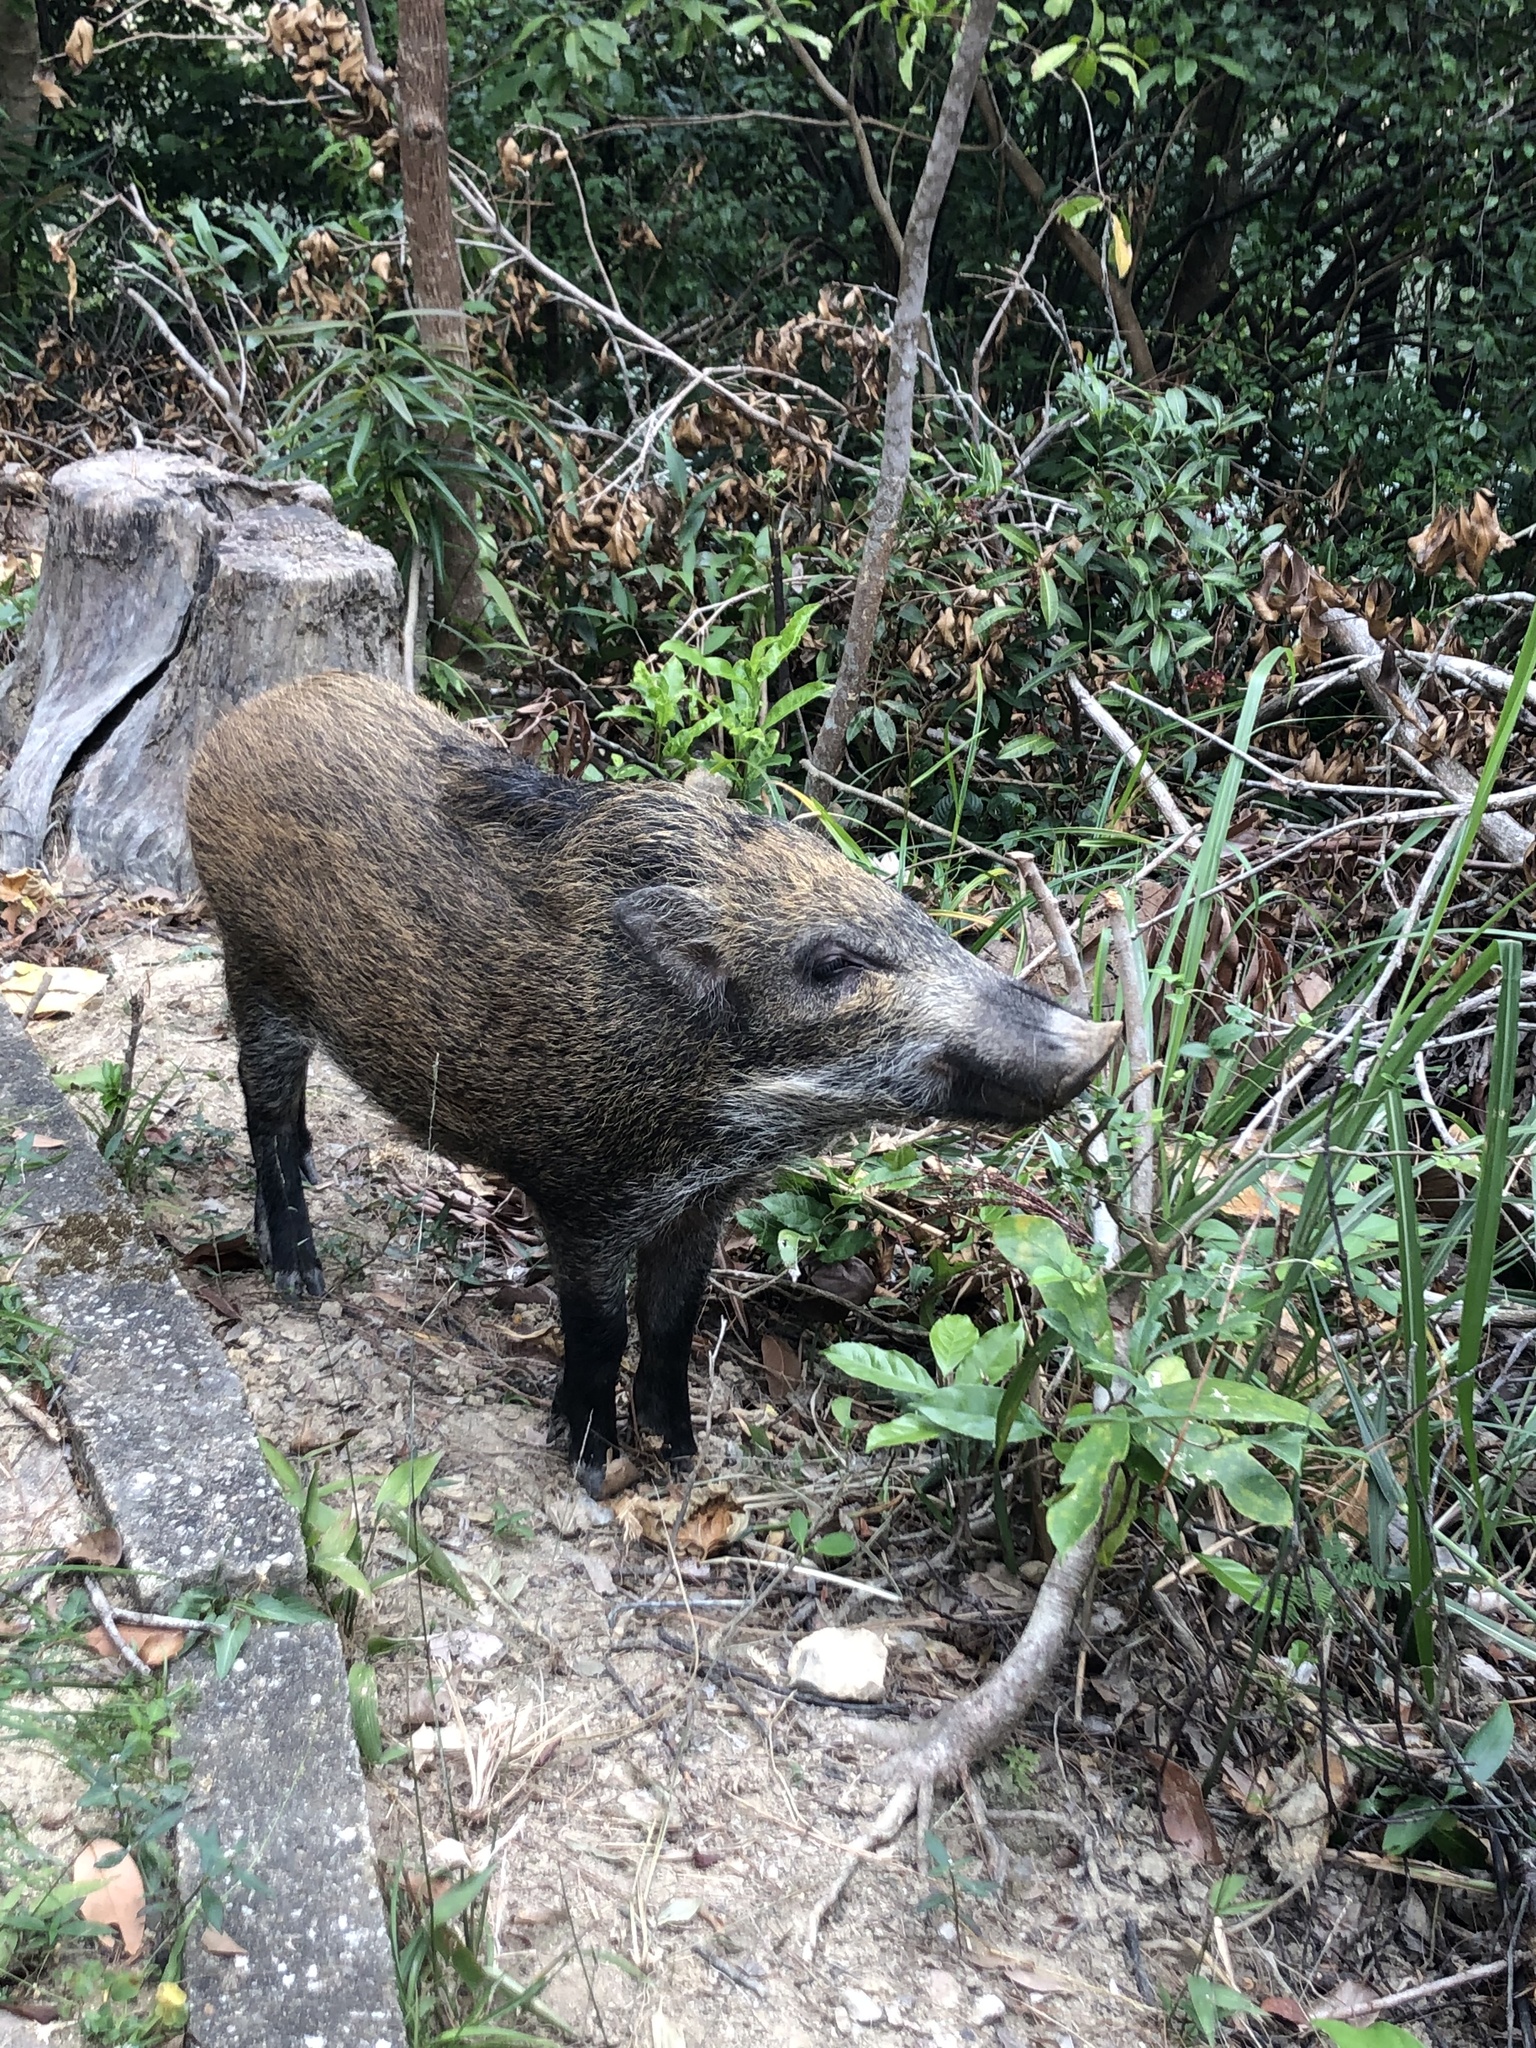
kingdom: Animalia
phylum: Chordata
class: Mammalia
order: Artiodactyla
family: Suidae
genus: Sus
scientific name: Sus scrofa
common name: Wild boar
